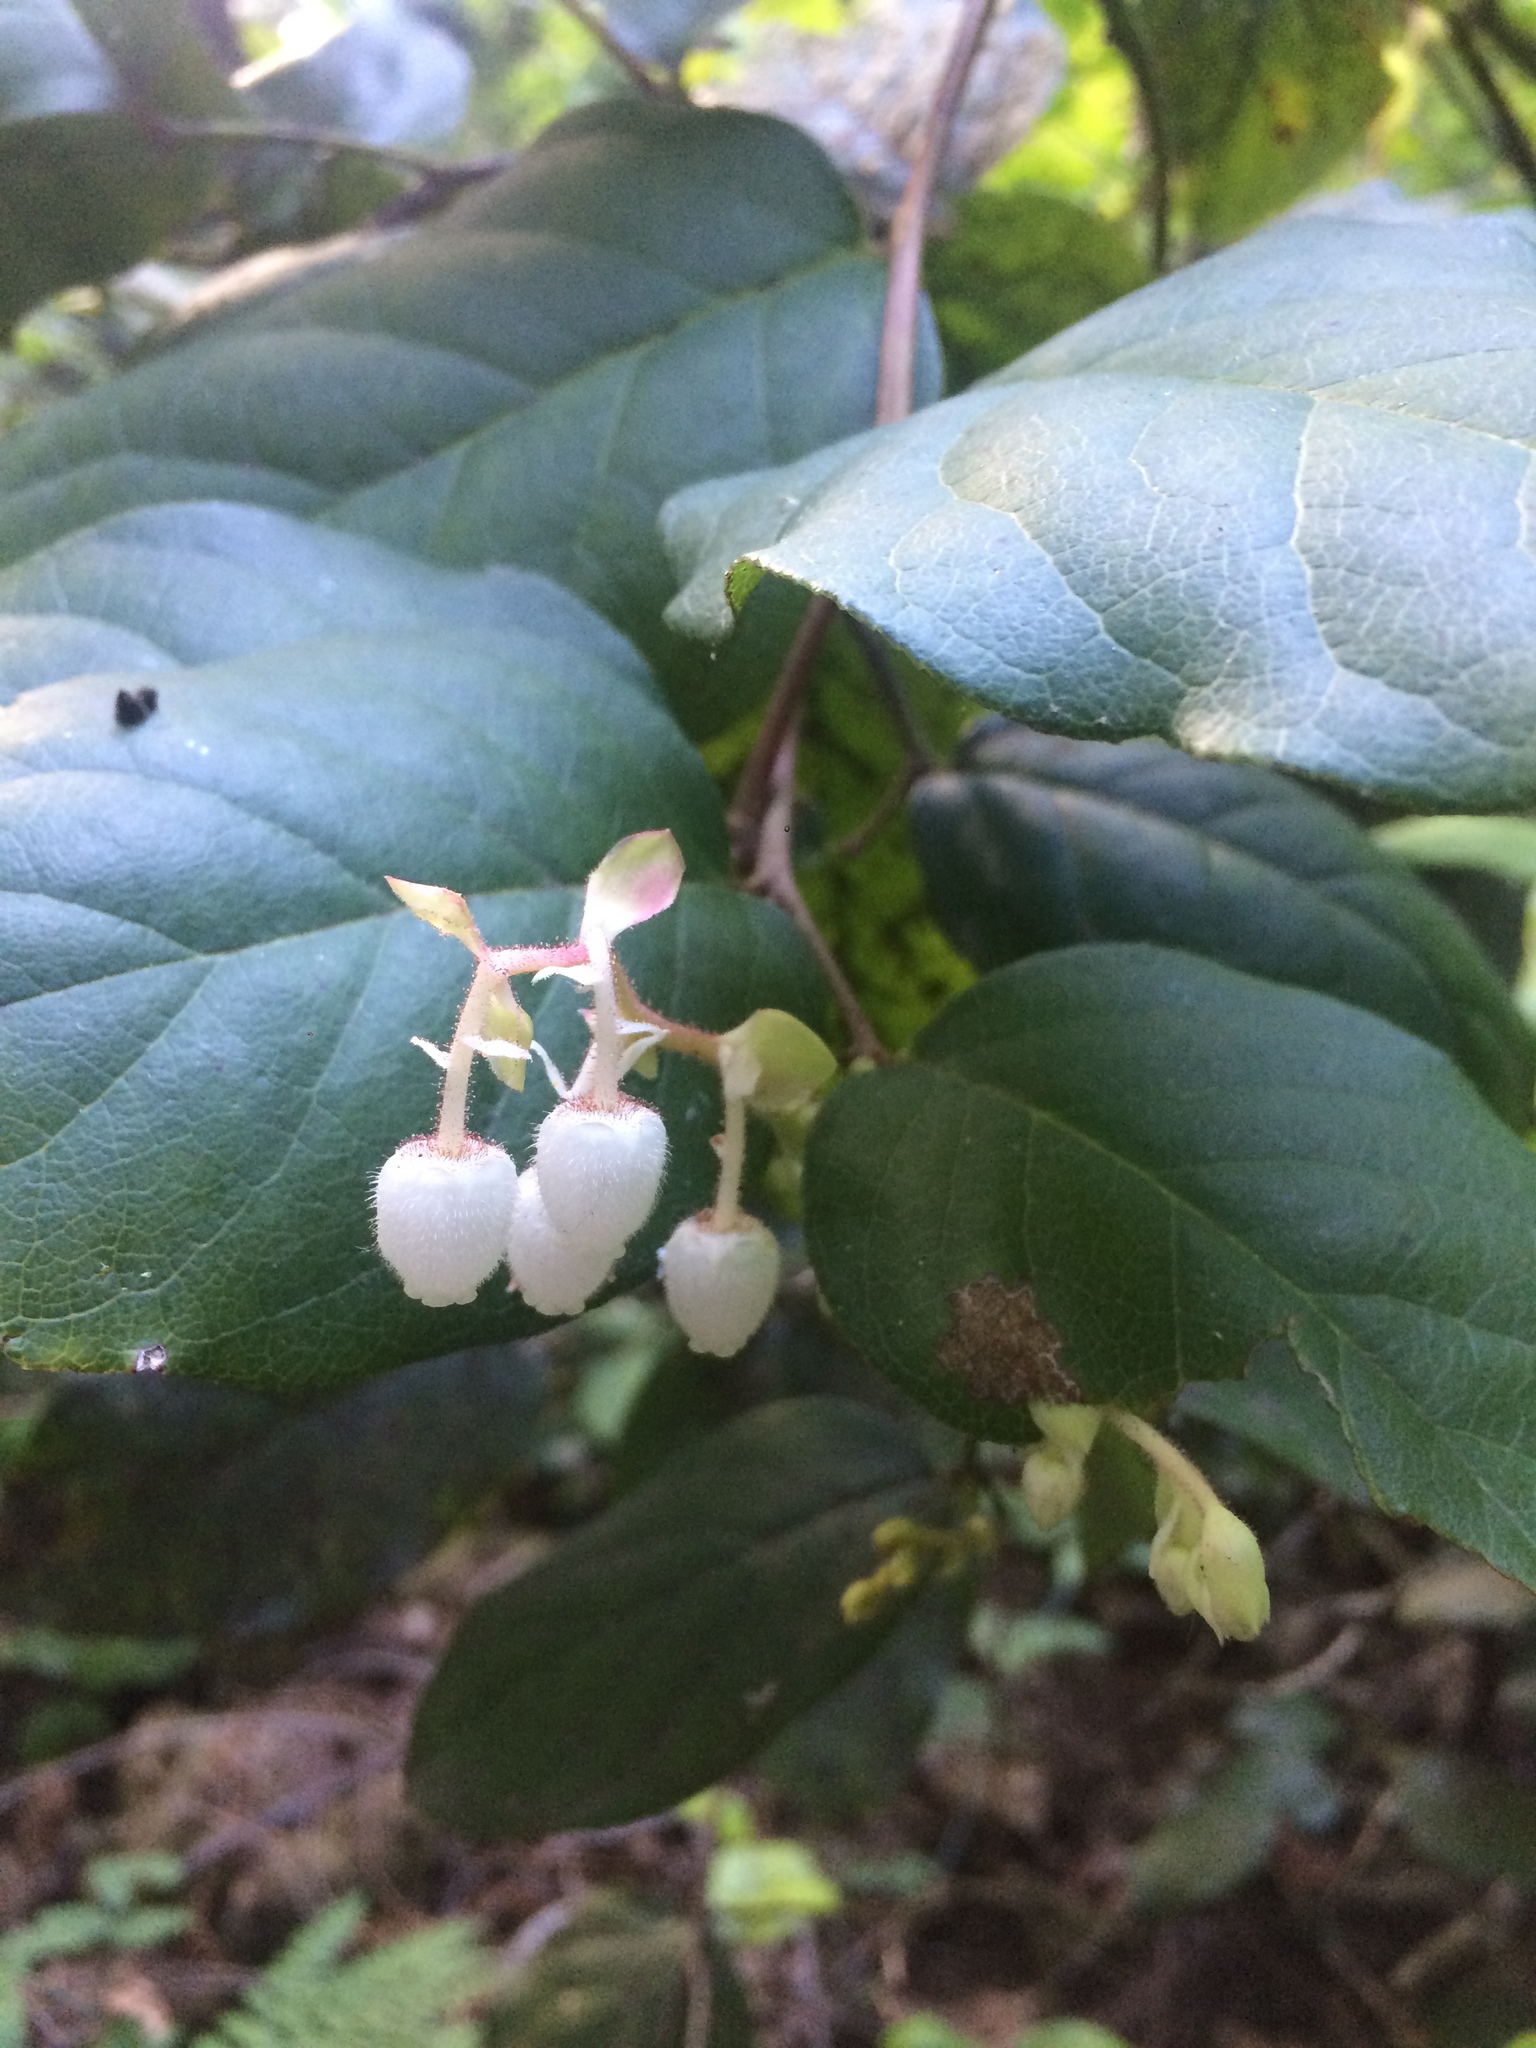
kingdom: Plantae
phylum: Tracheophyta
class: Magnoliopsida
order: Ericales
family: Ericaceae
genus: Gaultheria
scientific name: Gaultheria shallon
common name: Shallon
